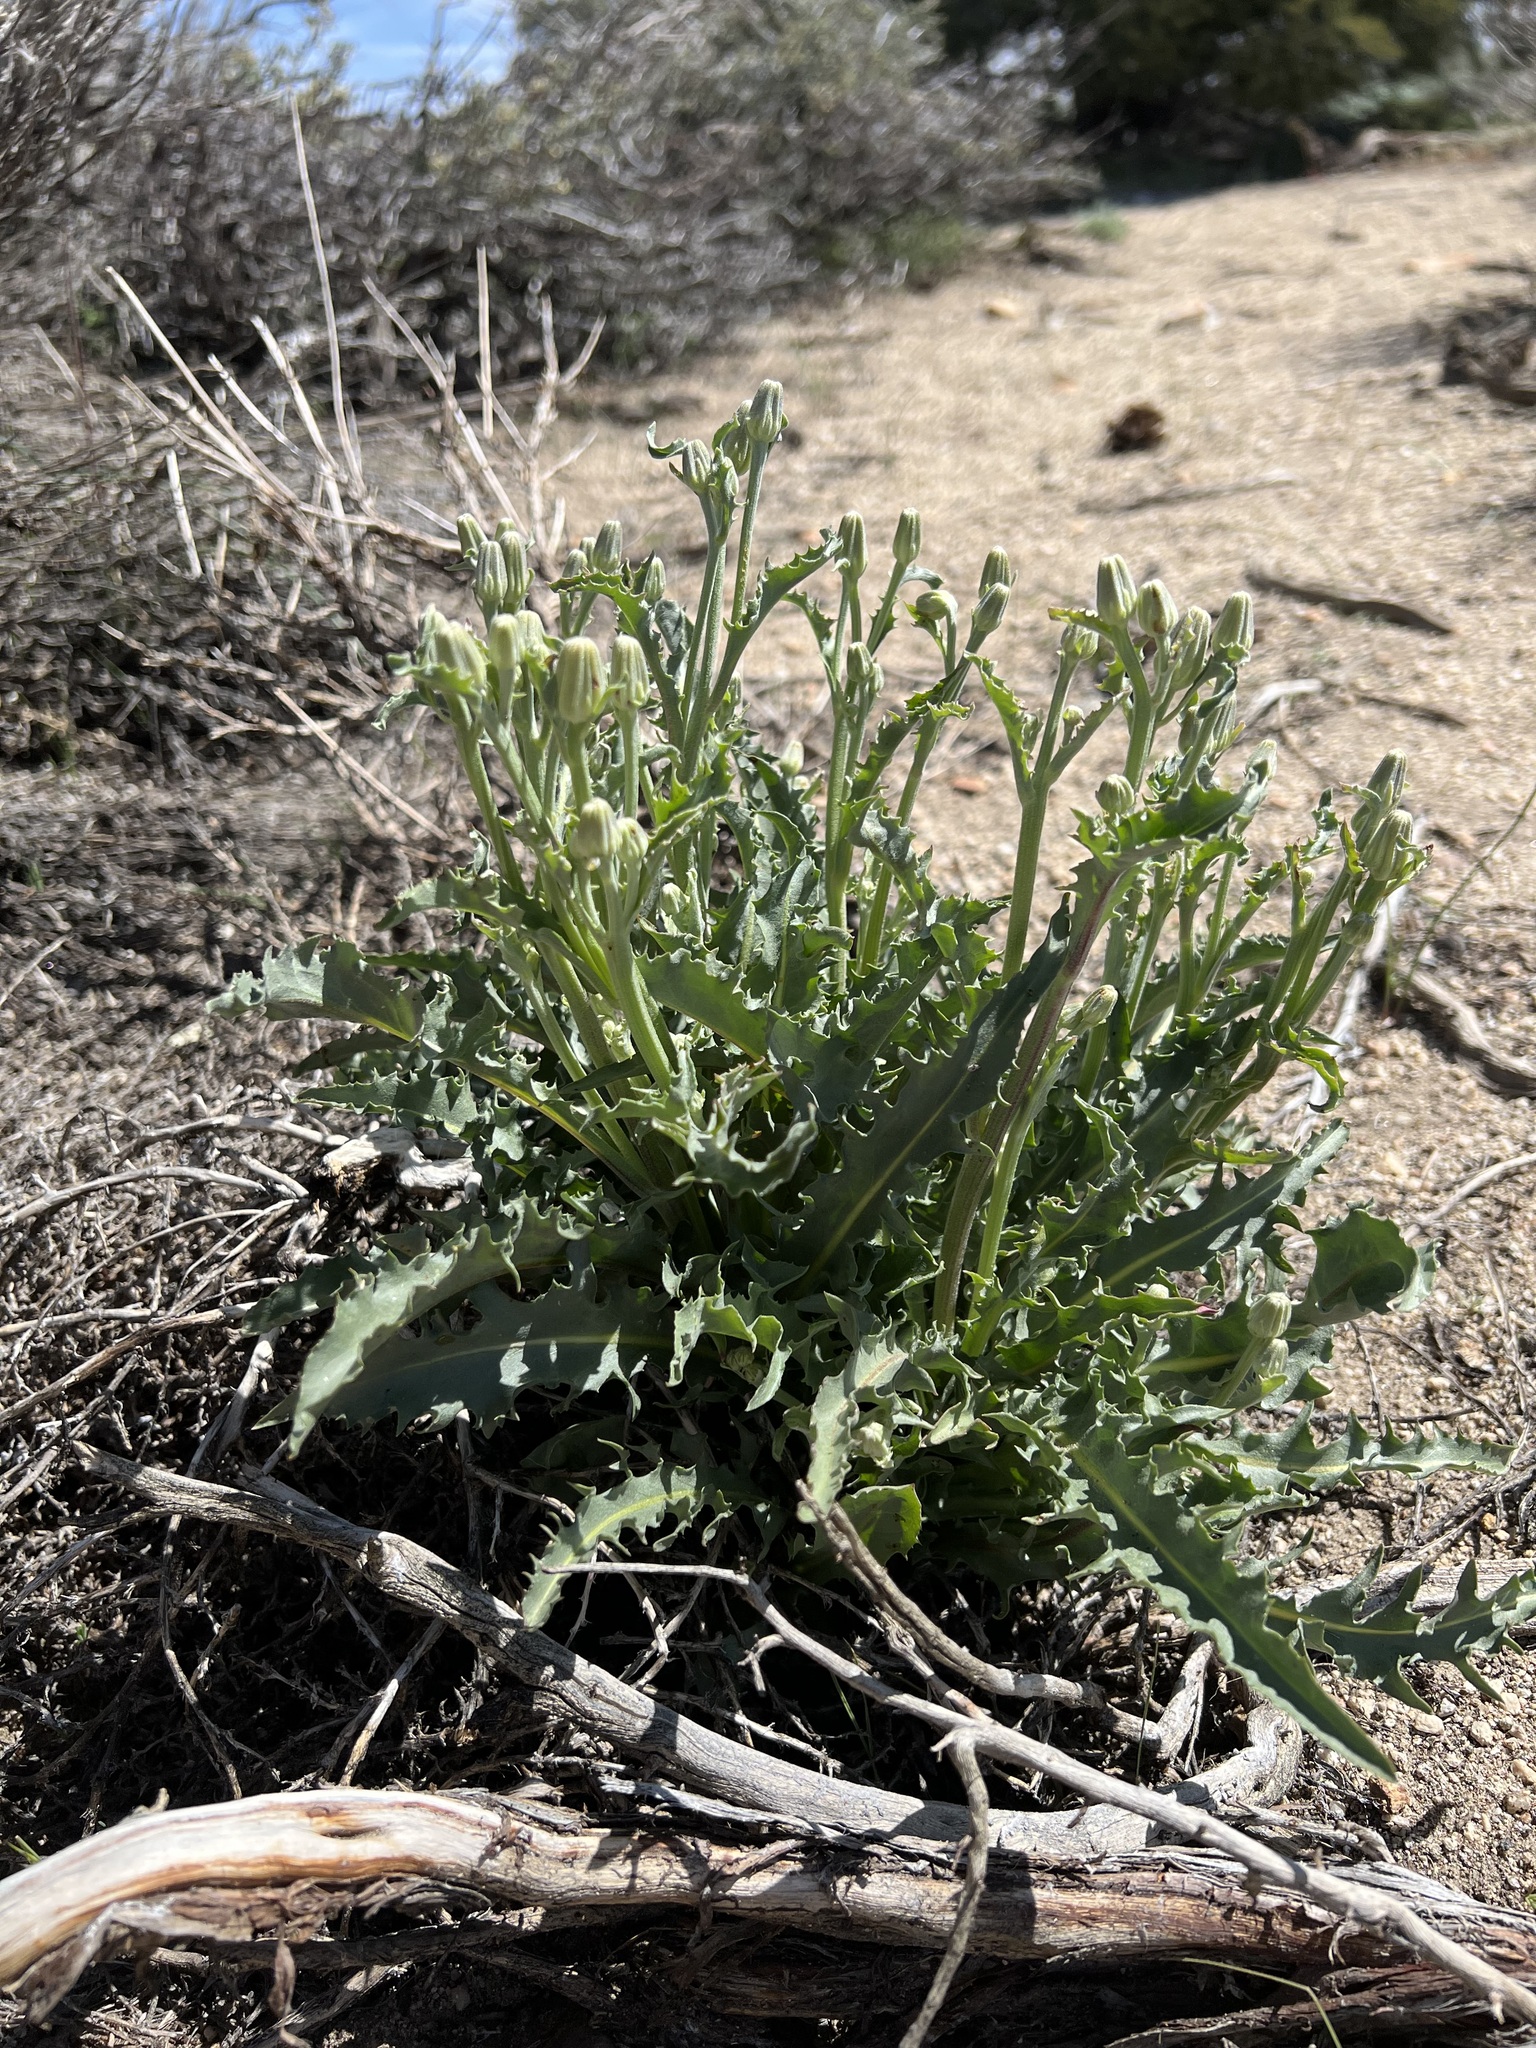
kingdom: Plantae
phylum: Tracheophyta
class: Magnoliopsida
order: Asterales
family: Asteraceae
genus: Crepis
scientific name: Crepis occidentalis
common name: Gray hawk's-beard
